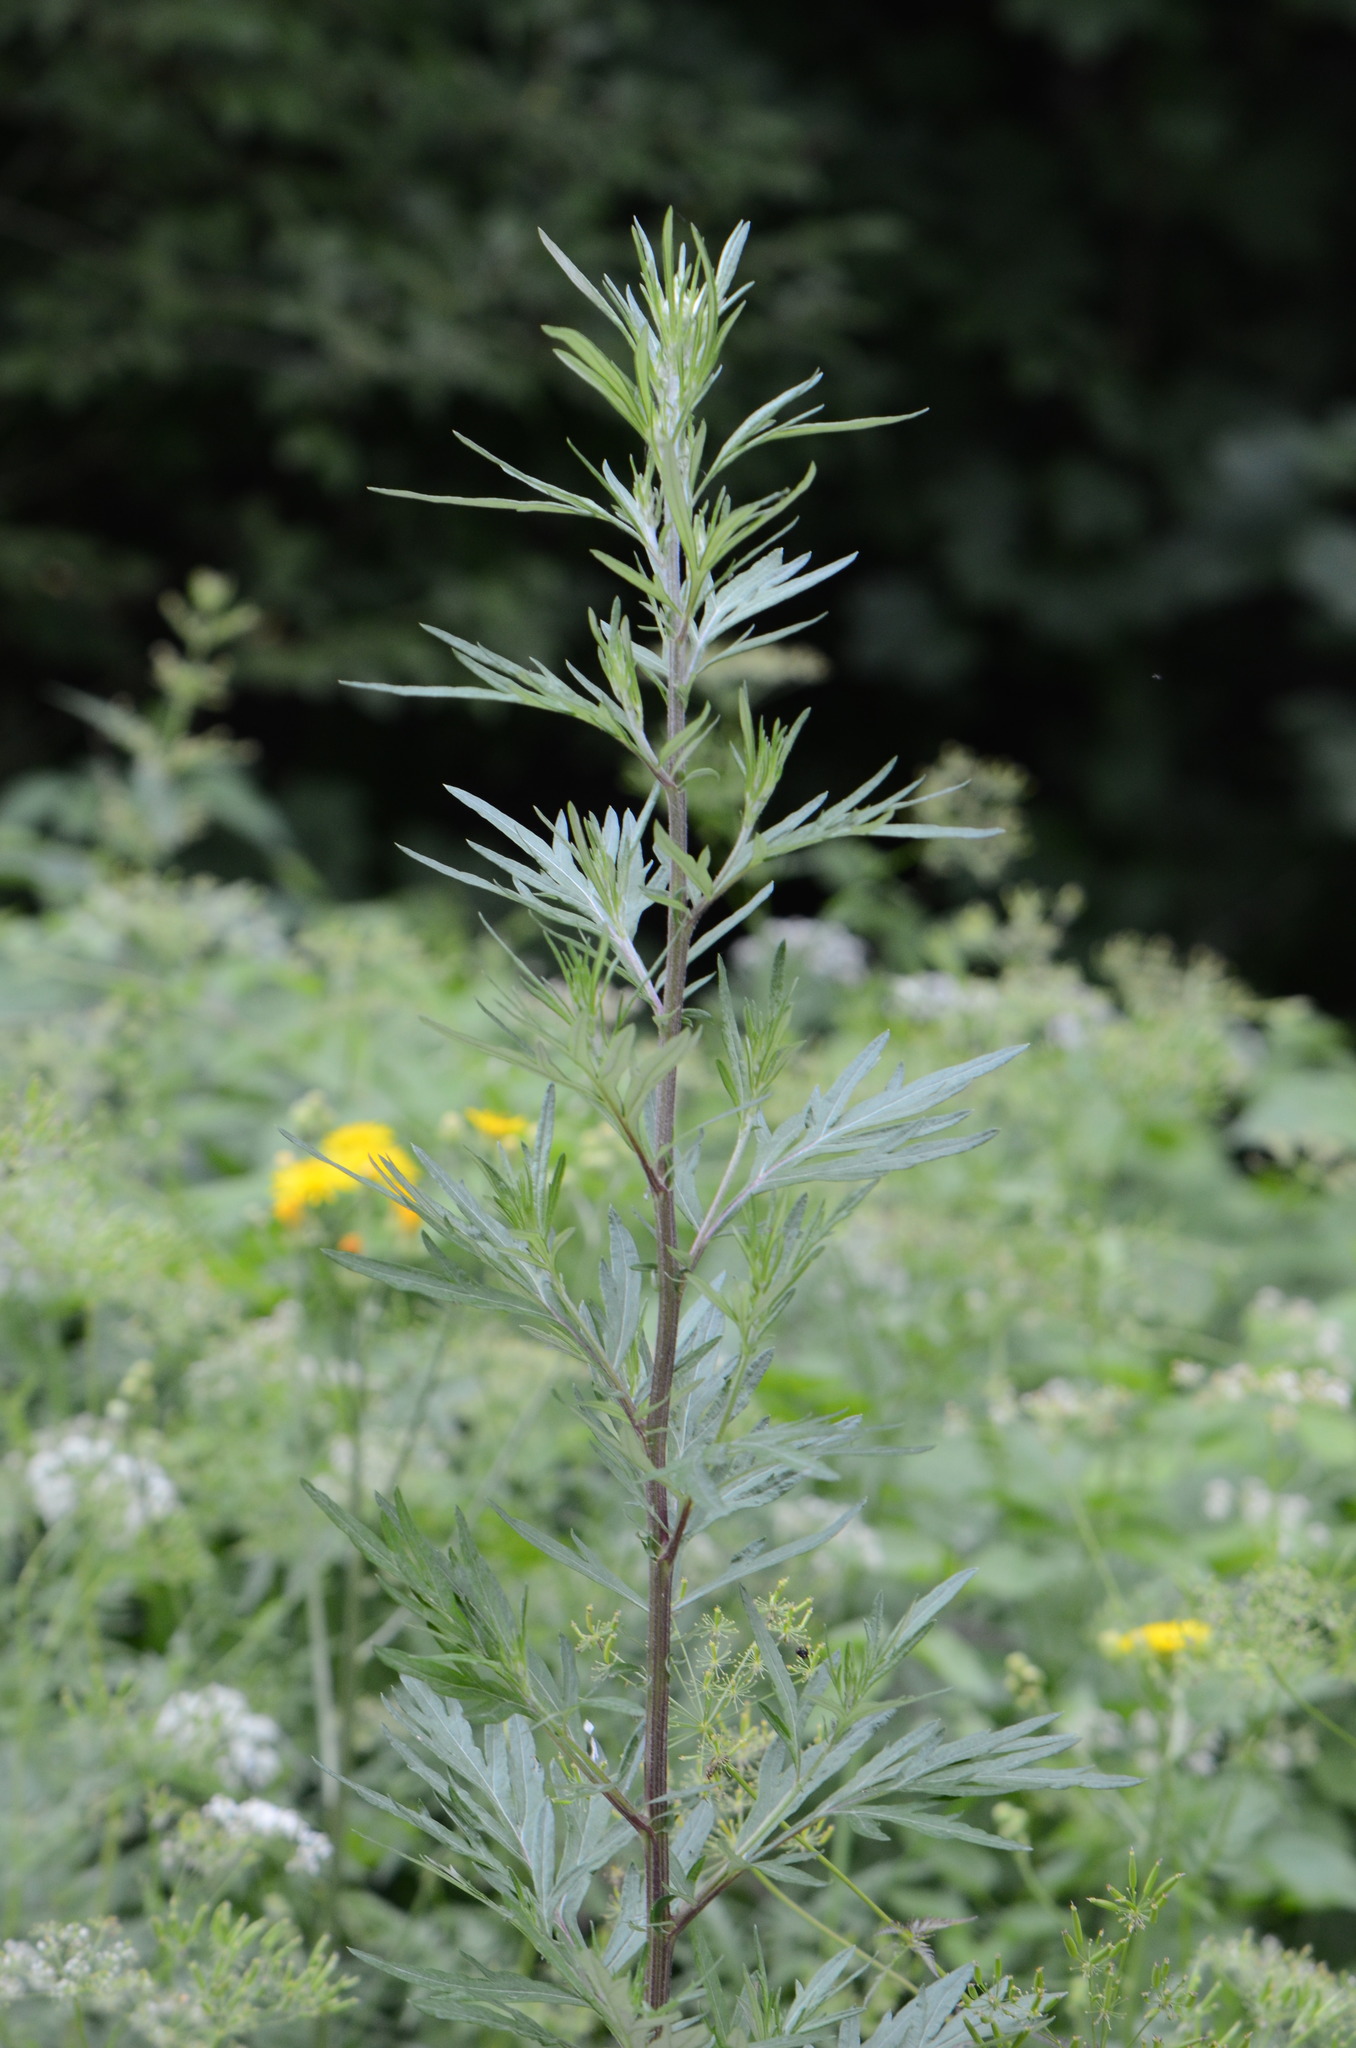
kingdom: Plantae
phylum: Tracheophyta
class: Magnoliopsida
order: Asterales
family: Asteraceae
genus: Artemisia
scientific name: Artemisia vulgaris
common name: Mugwort
